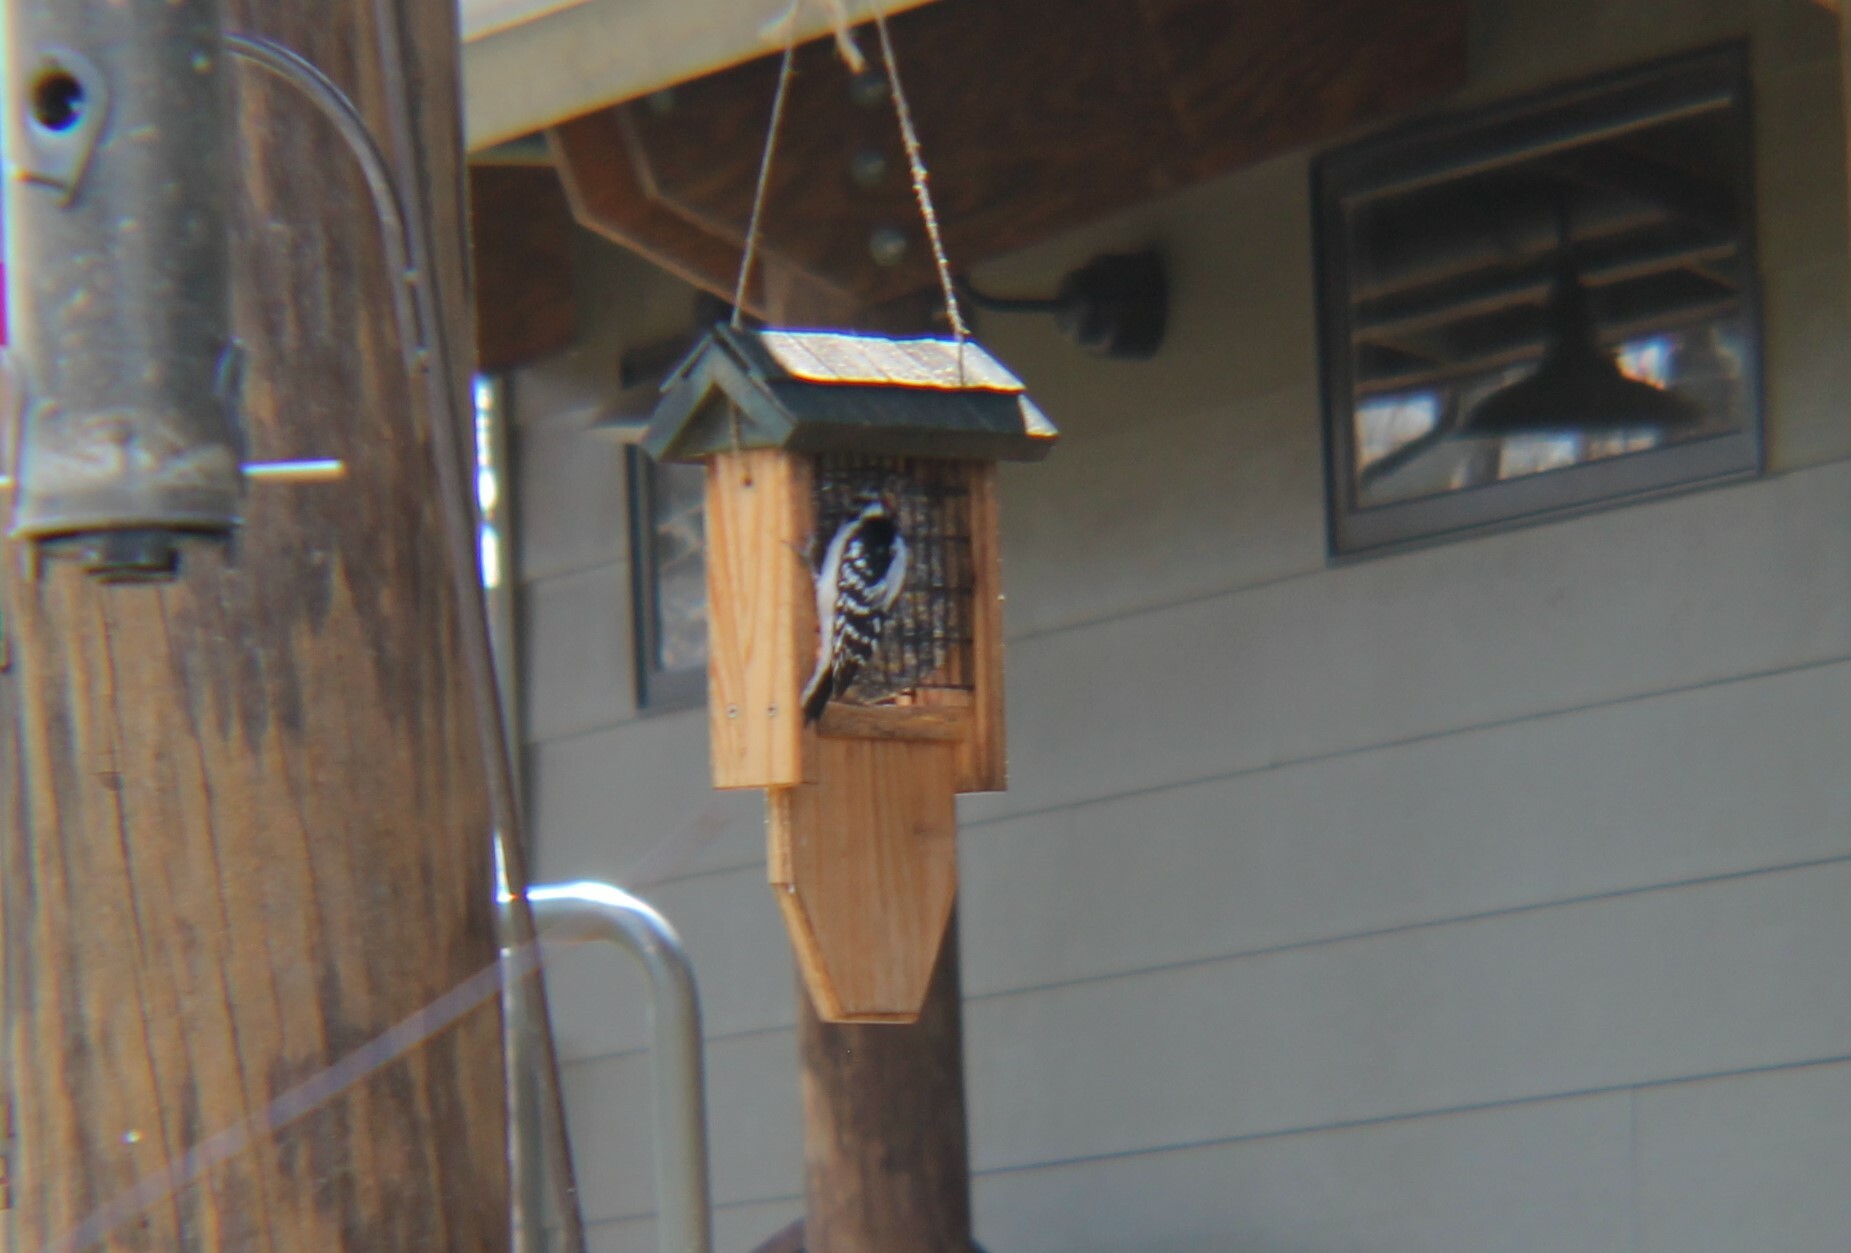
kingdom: Animalia
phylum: Chordata
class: Aves
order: Piciformes
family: Picidae
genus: Dryobates
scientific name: Dryobates pubescens
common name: Downy woodpecker
